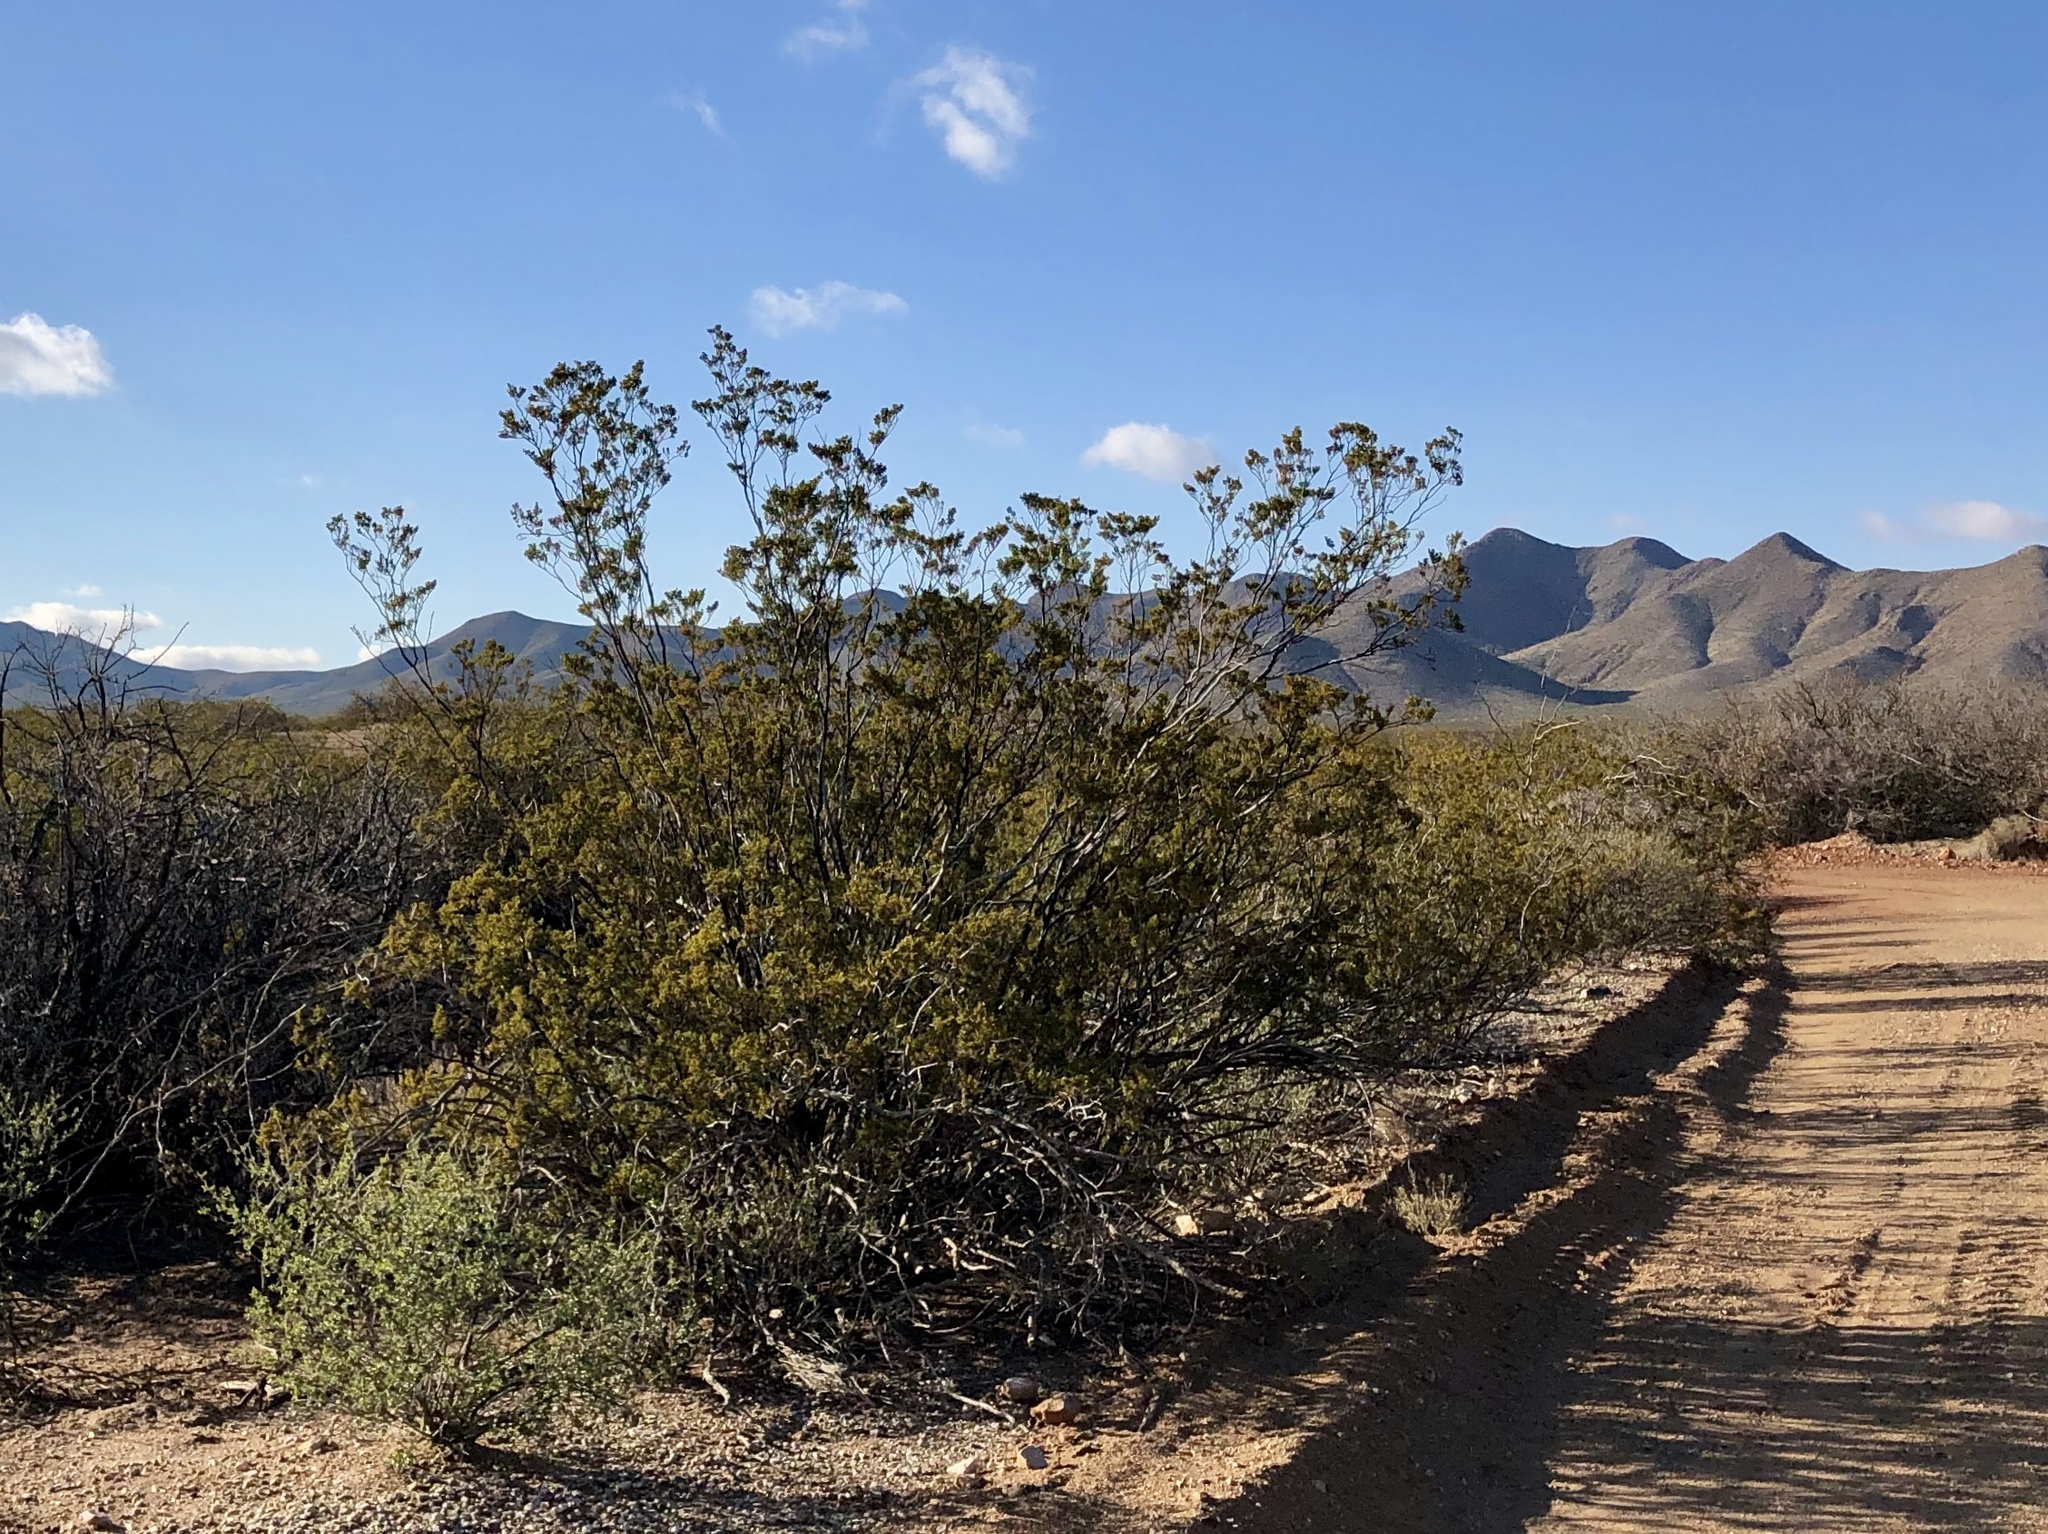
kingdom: Plantae
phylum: Tracheophyta
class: Magnoliopsida
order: Zygophyllales
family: Zygophyllaceae
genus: Larrea
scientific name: Larrea tridentata
